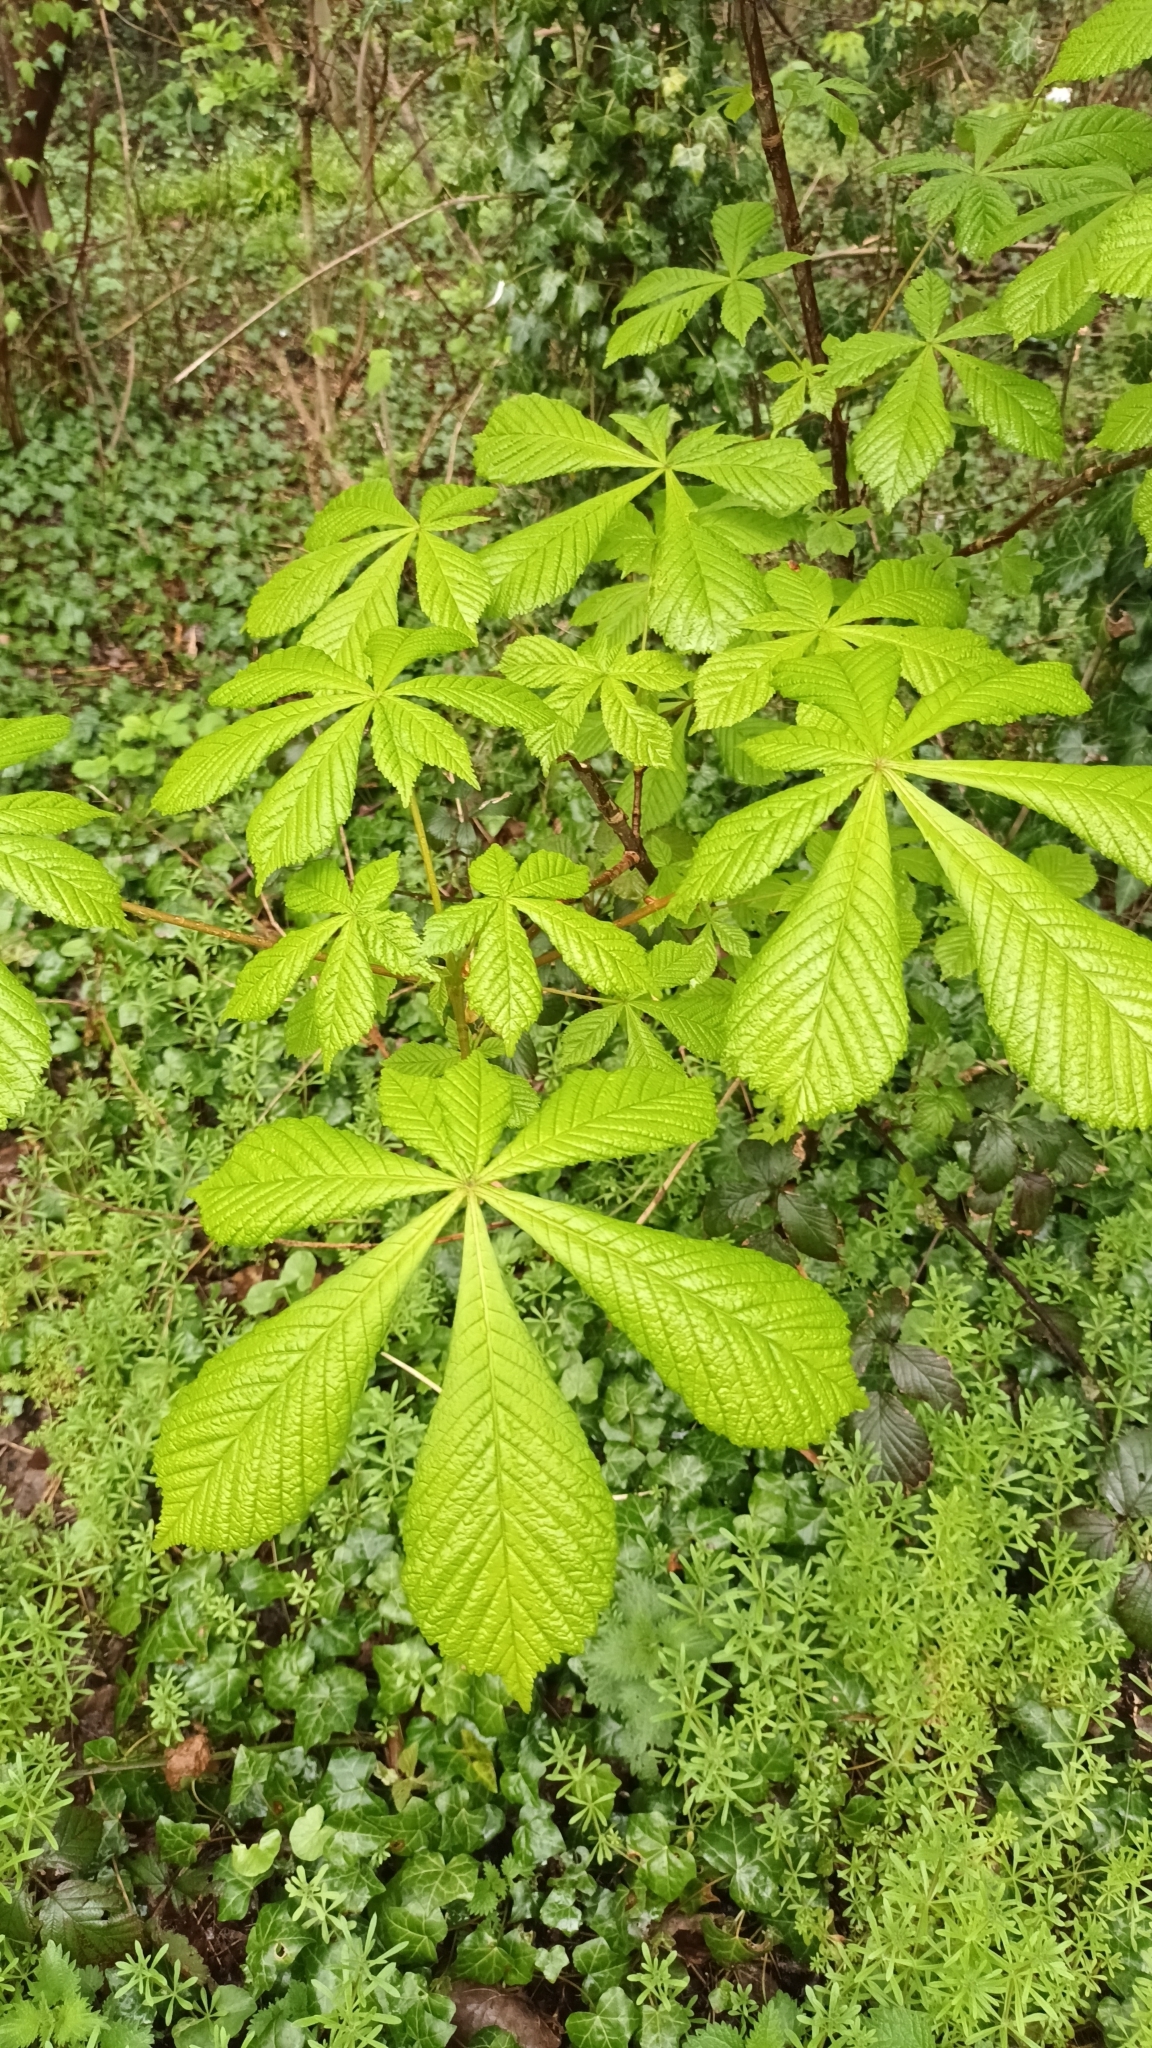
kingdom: Plantae
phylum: Tracheophyta
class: Magnoliopsida
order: Sapindales
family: Sapindaceae
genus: Aesculus
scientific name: Aesculus hippocastanum
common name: Horse-chestnut
